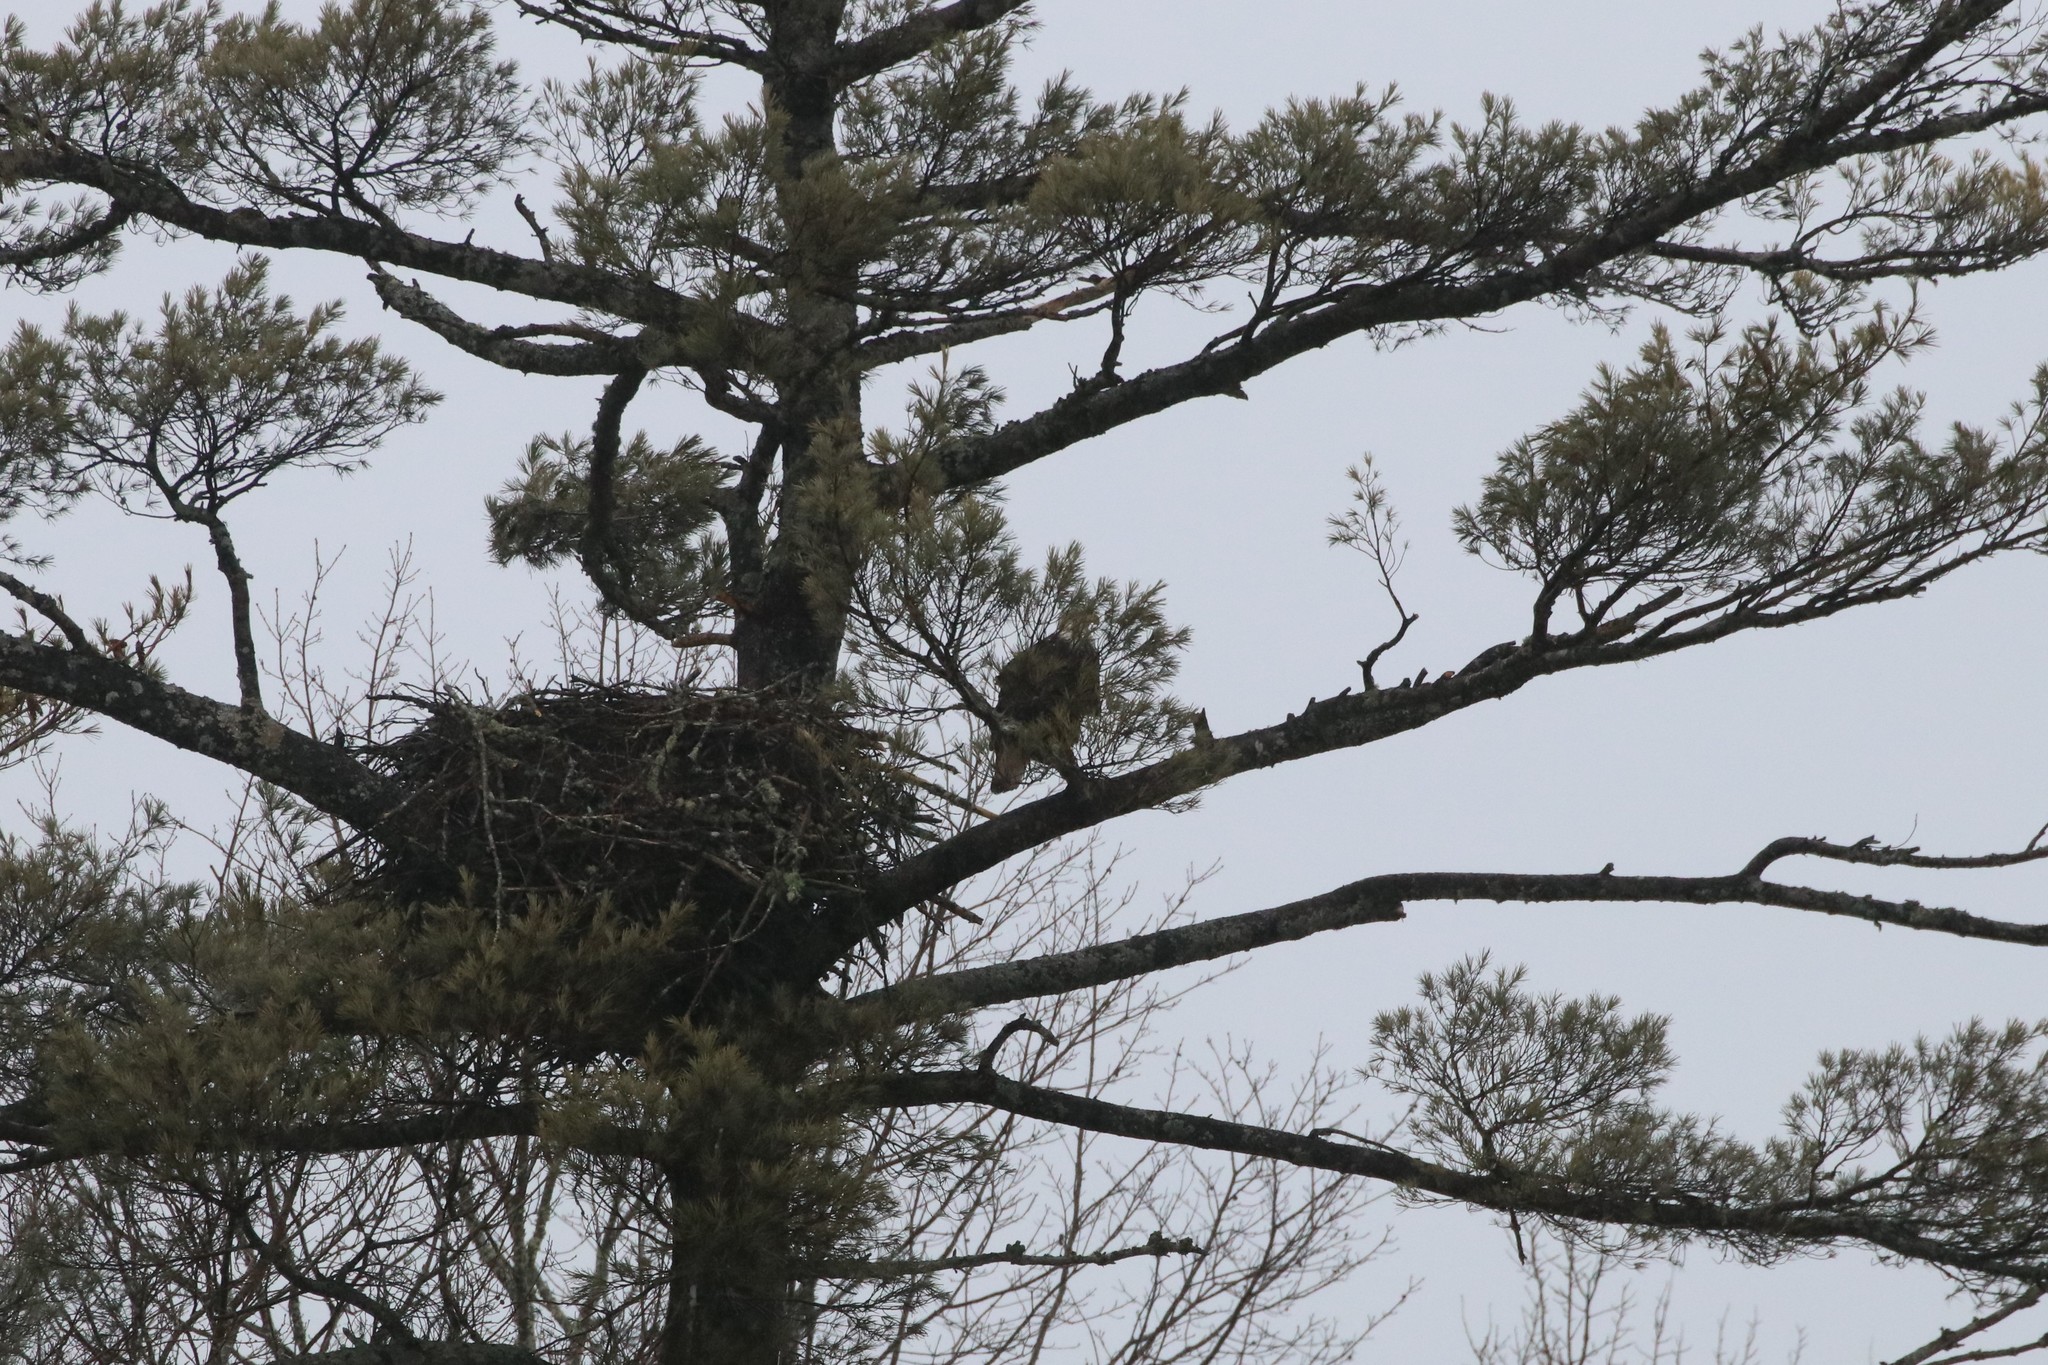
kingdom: Animalia
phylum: Chordata
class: Aves
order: Accipitriformes
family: Accipitridae
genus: Haliaeetus
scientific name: Haliaeetus leucocephalus
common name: Bald eagle
